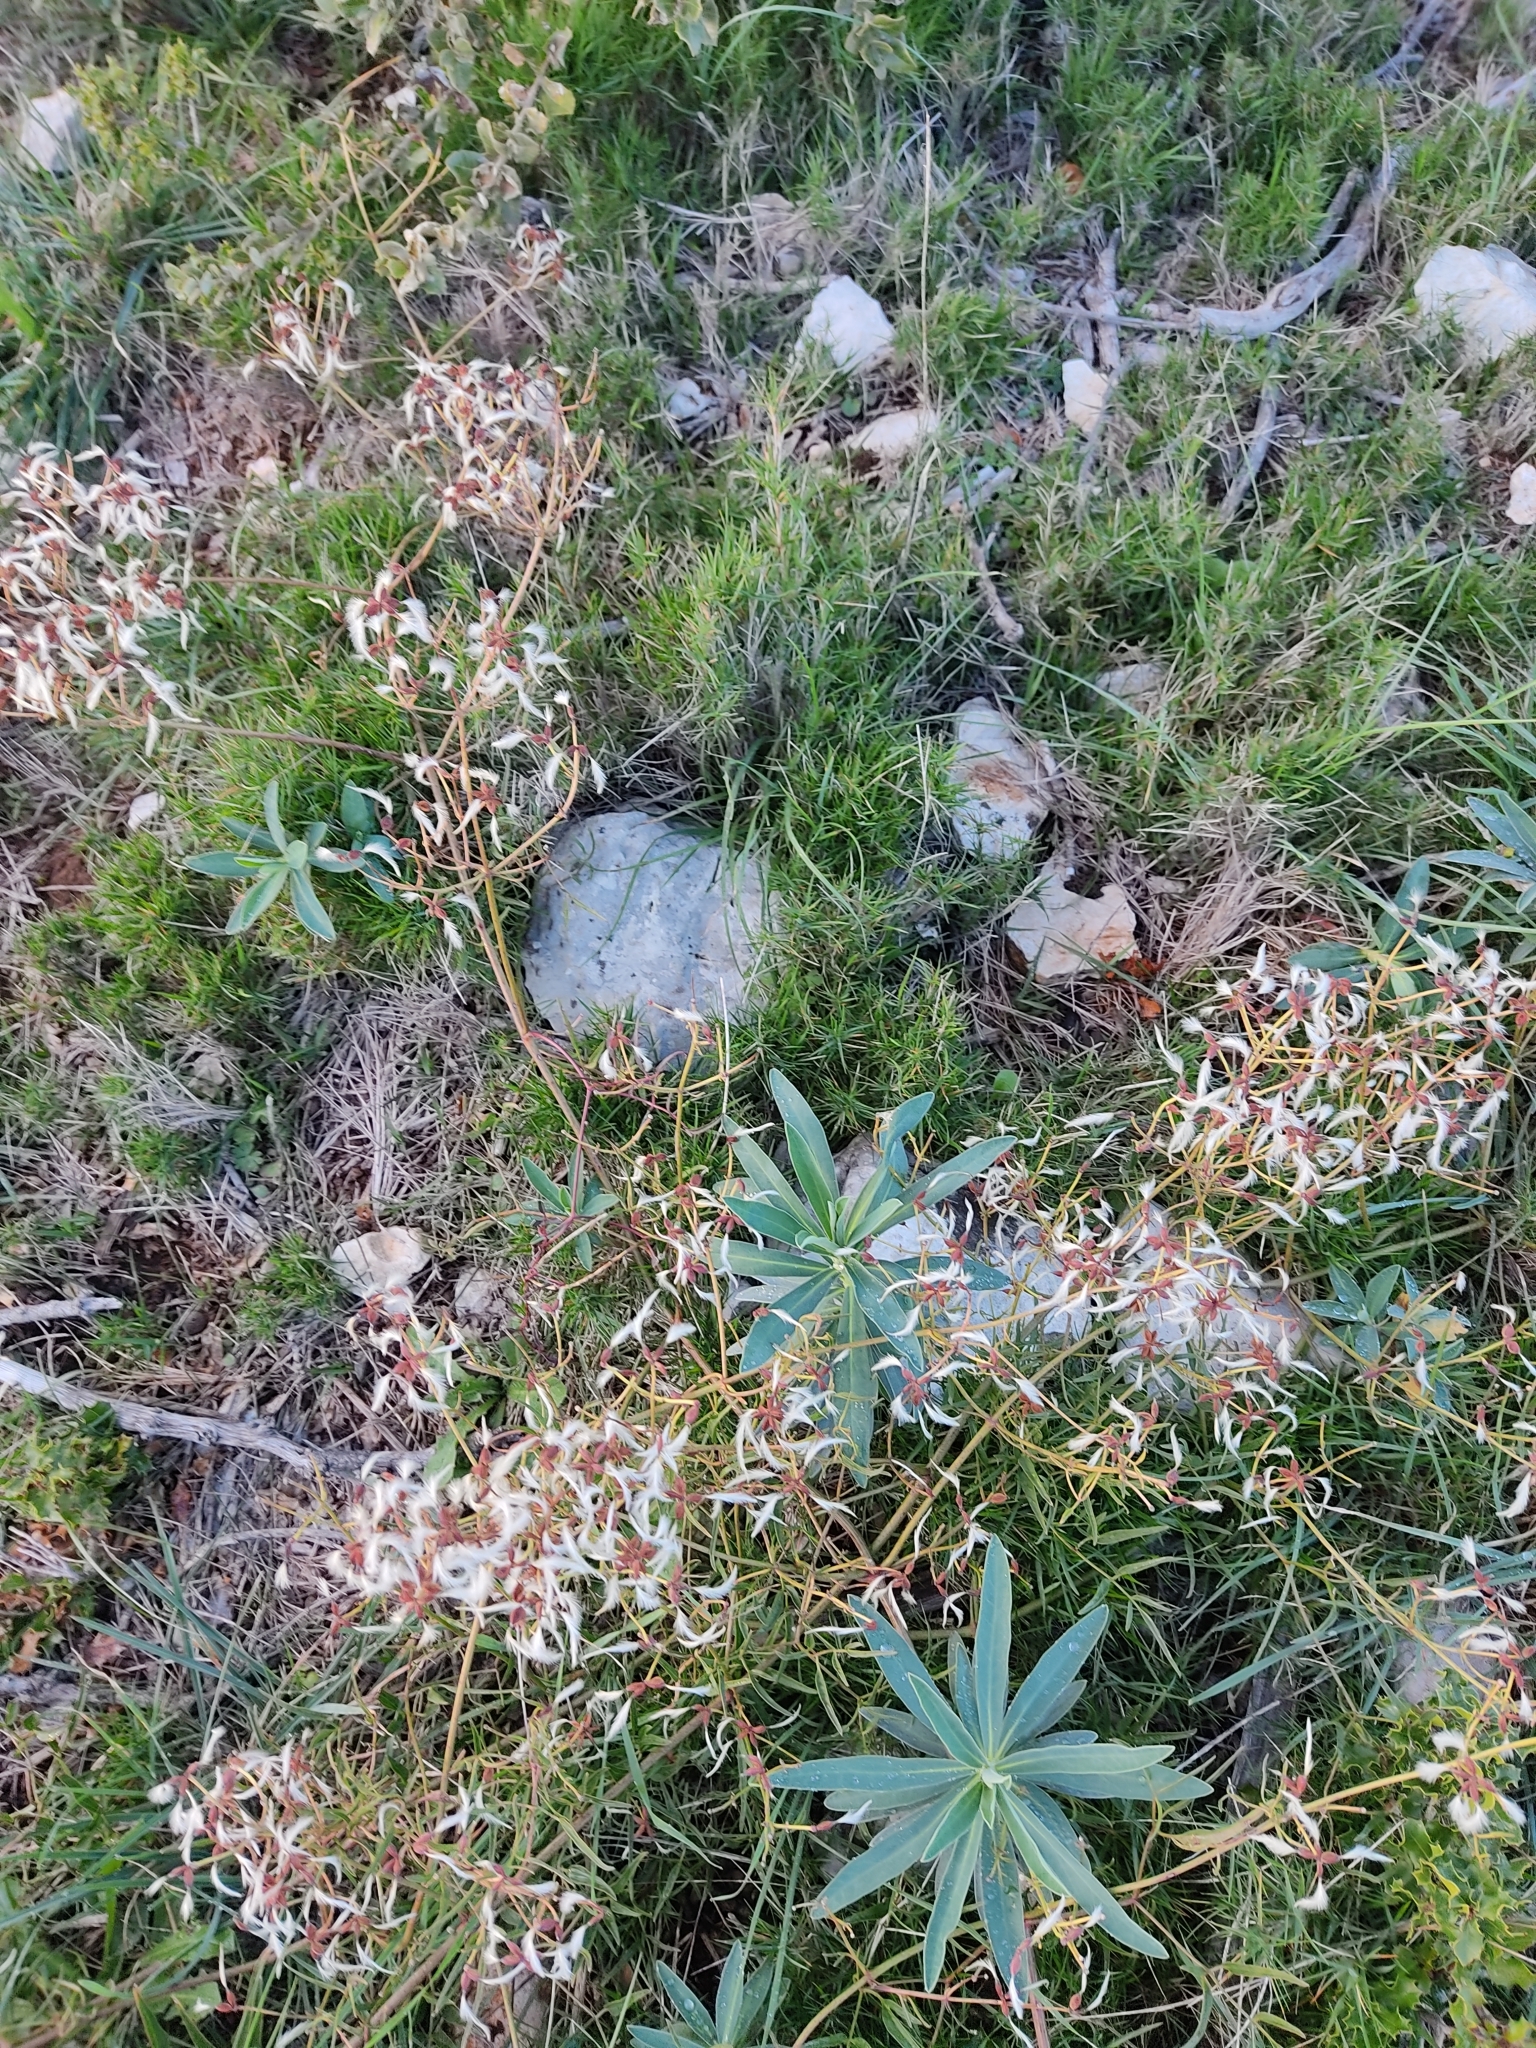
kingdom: Plantae
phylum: Tracheophyta
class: Magnoliopsida
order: Ranunculales
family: Ranunculaceae
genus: Clematis
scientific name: Clematis flammula
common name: Virgin's-bower
